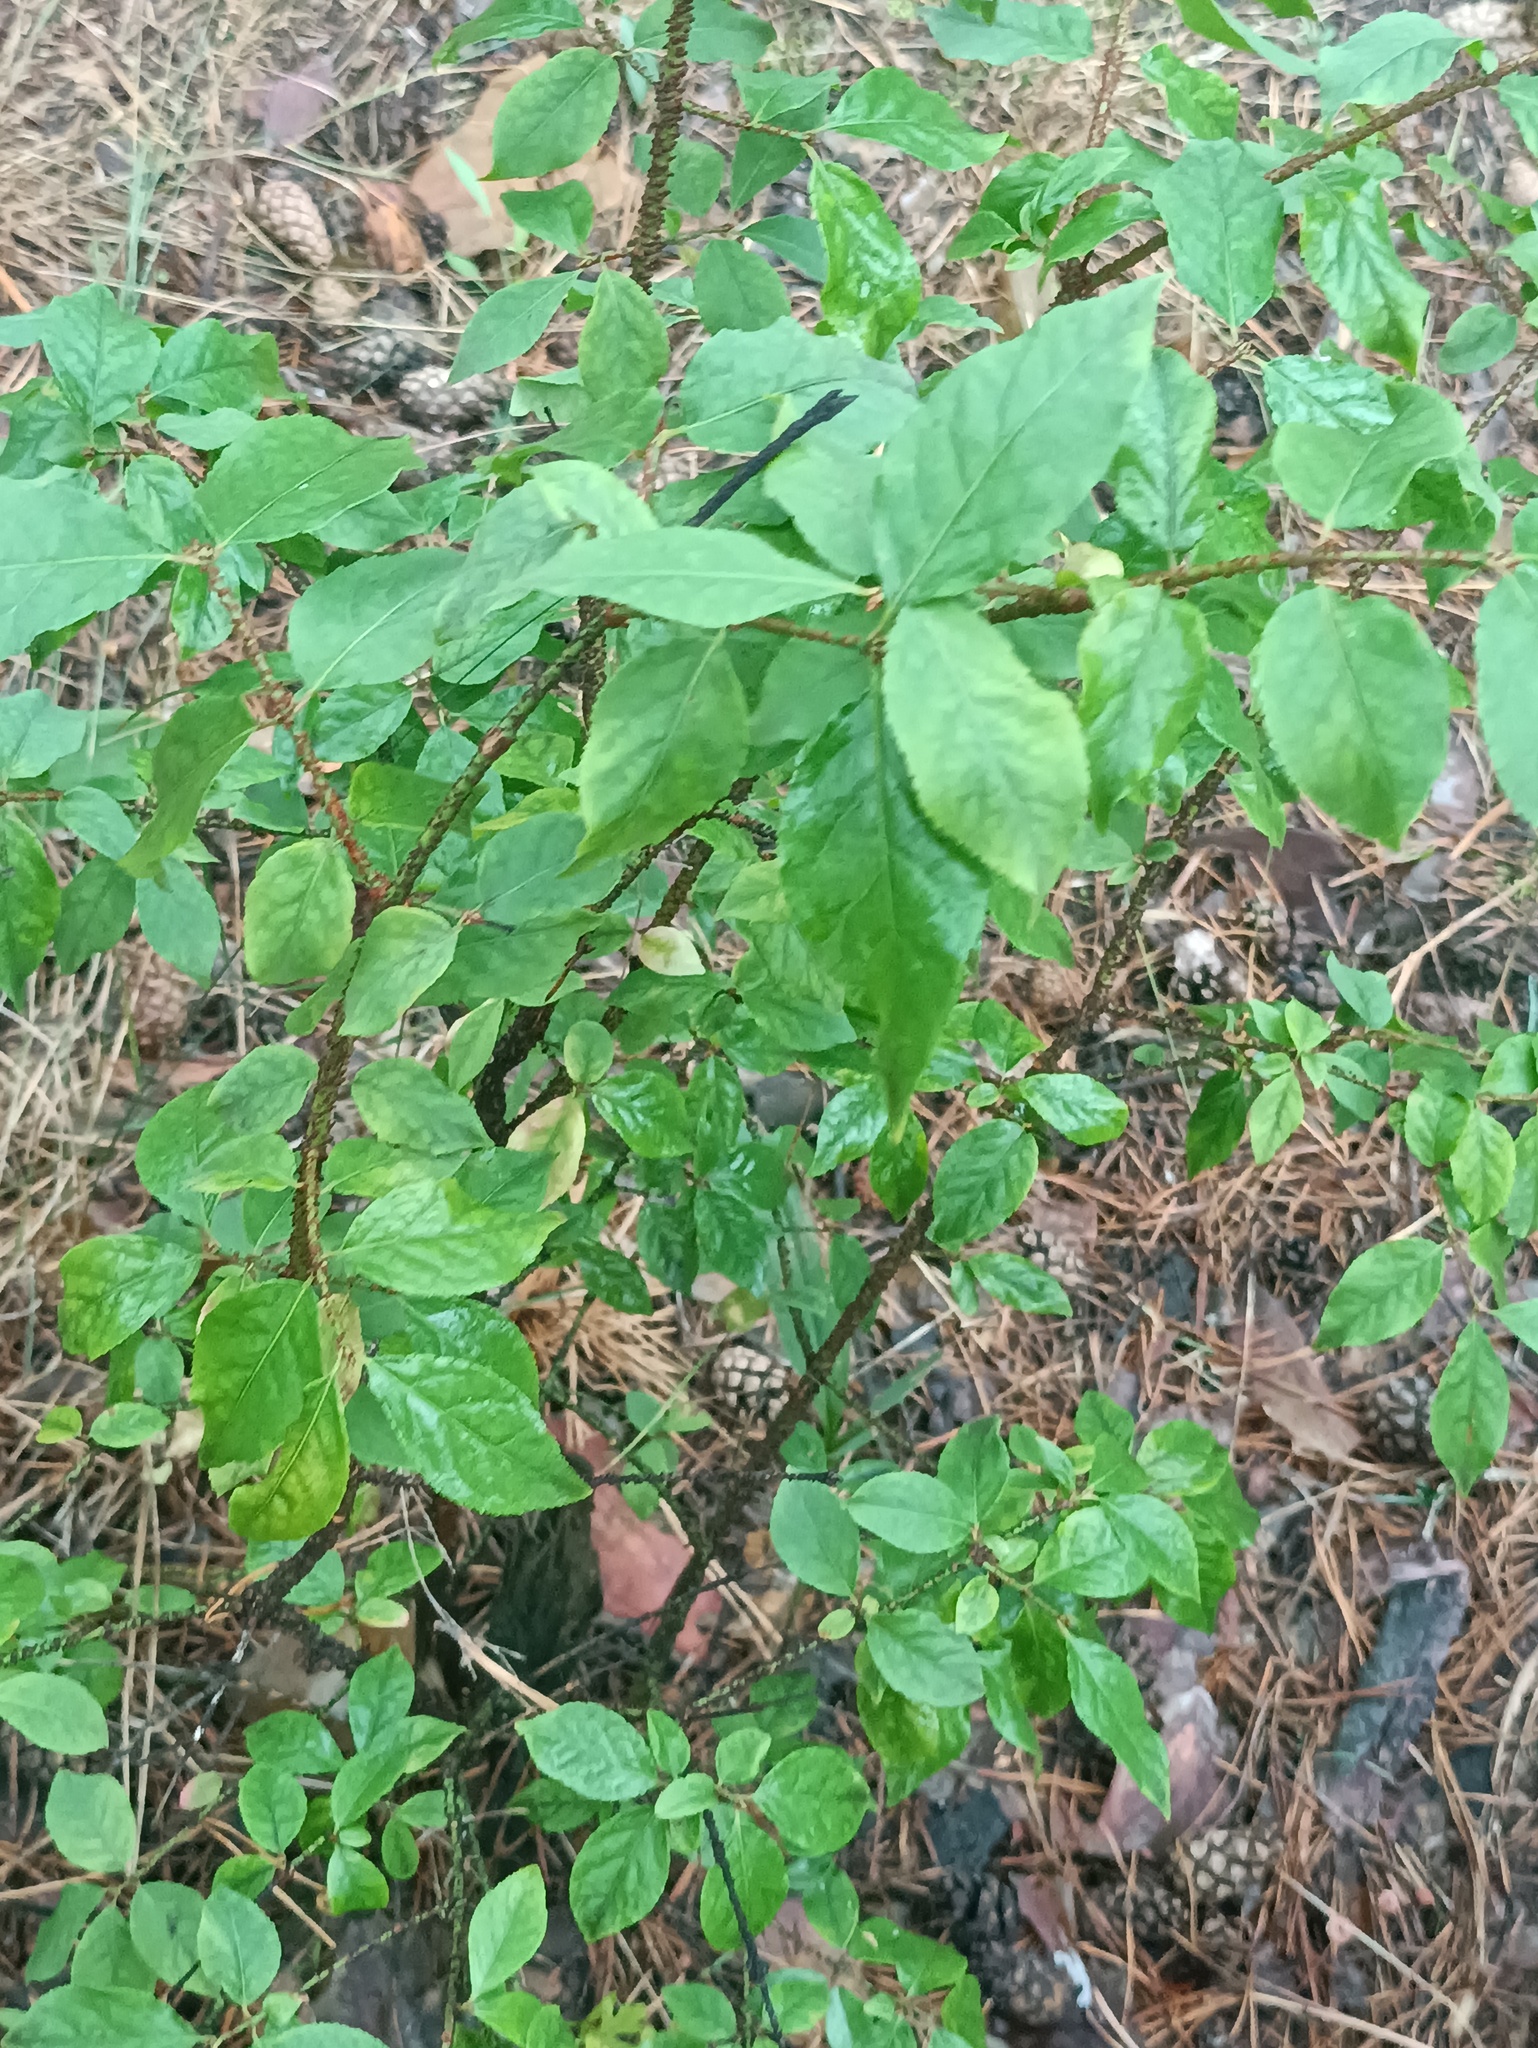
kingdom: Plantae
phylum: Tracheophyta
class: Magnoliopsida
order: Celastrales
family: Celastraceae
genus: Euonymus
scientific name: Euonymus verrucosus
